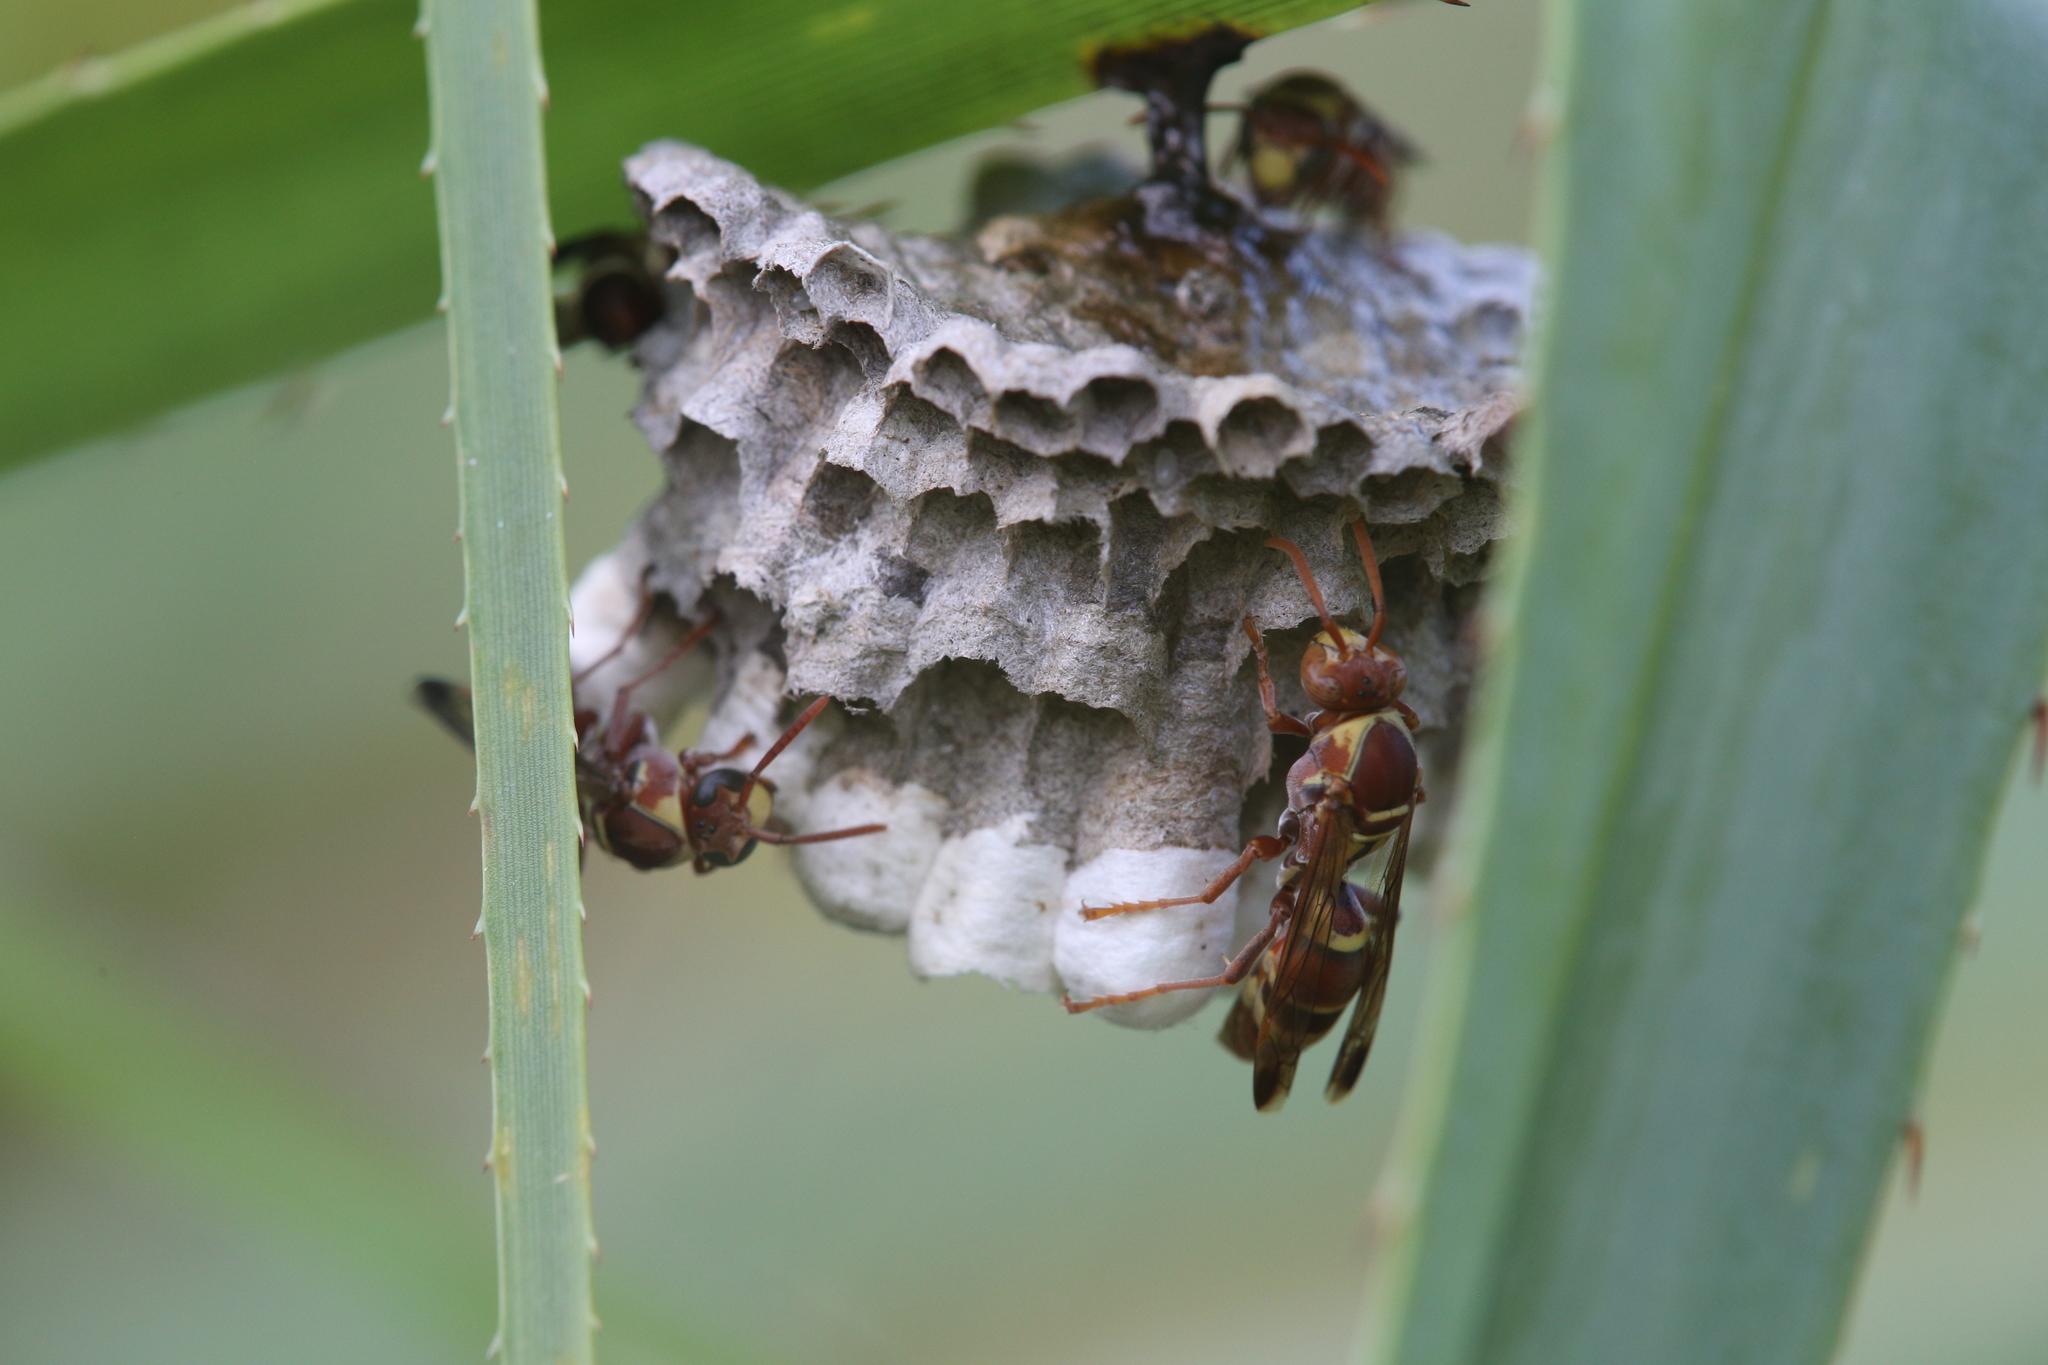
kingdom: Animalia
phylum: Arthropoda
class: Insecta
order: Hymenoptera
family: Eumenidae
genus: Polistes
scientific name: Polistes stigma
